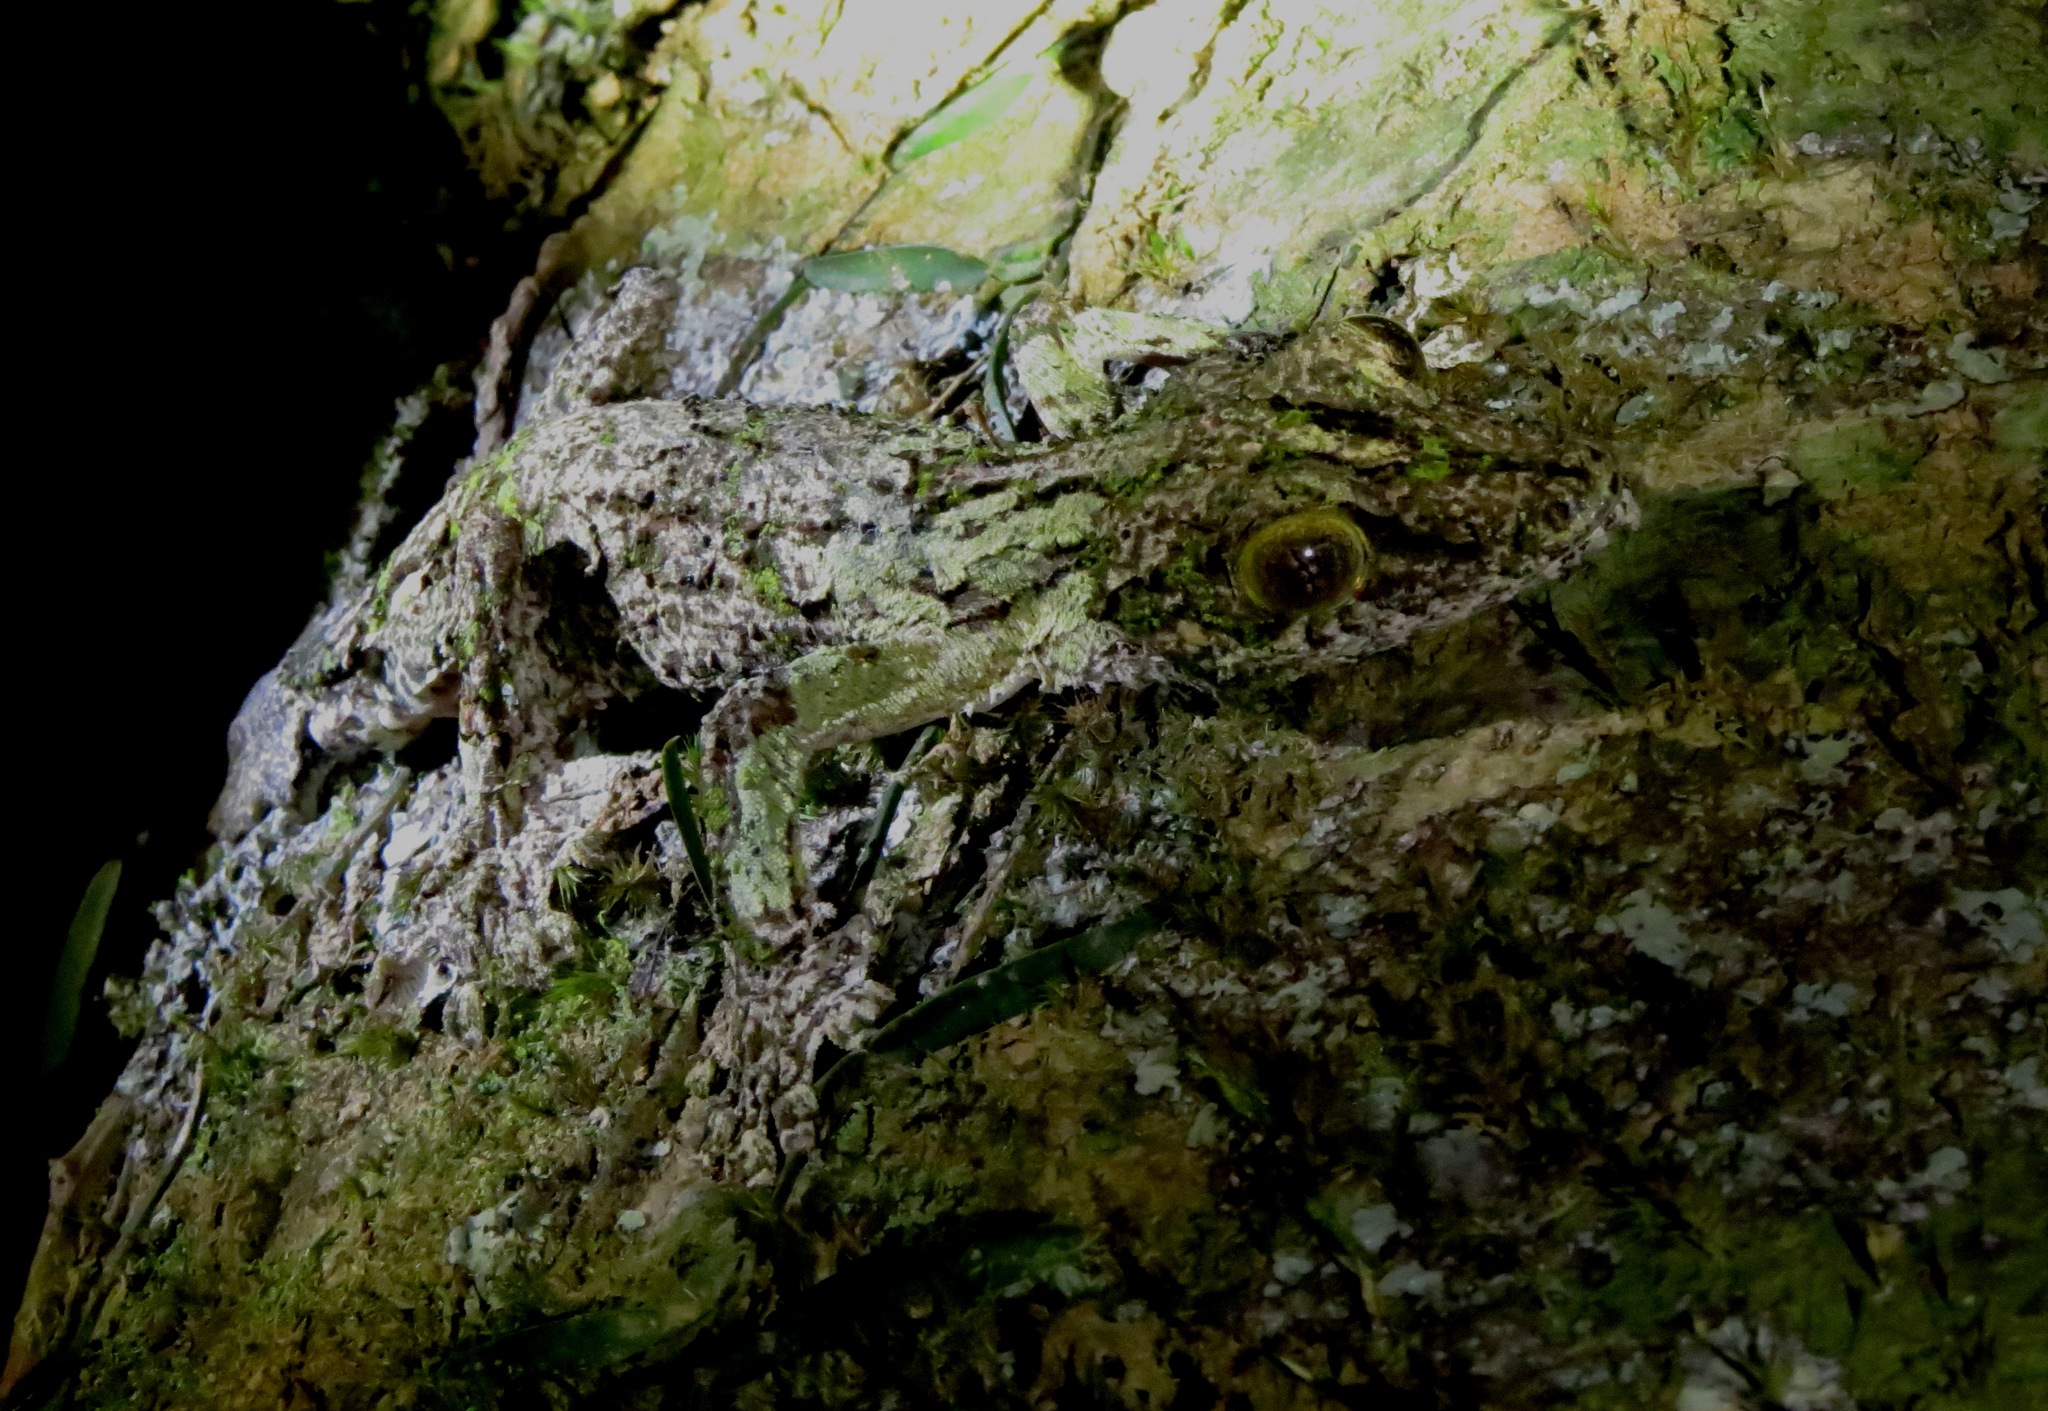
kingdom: Animalia
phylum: Chordata
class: Squamata
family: Gekkonidae
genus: Uroplatus
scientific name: Uroplatus sikorae
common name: Southern flat-tail gecko
